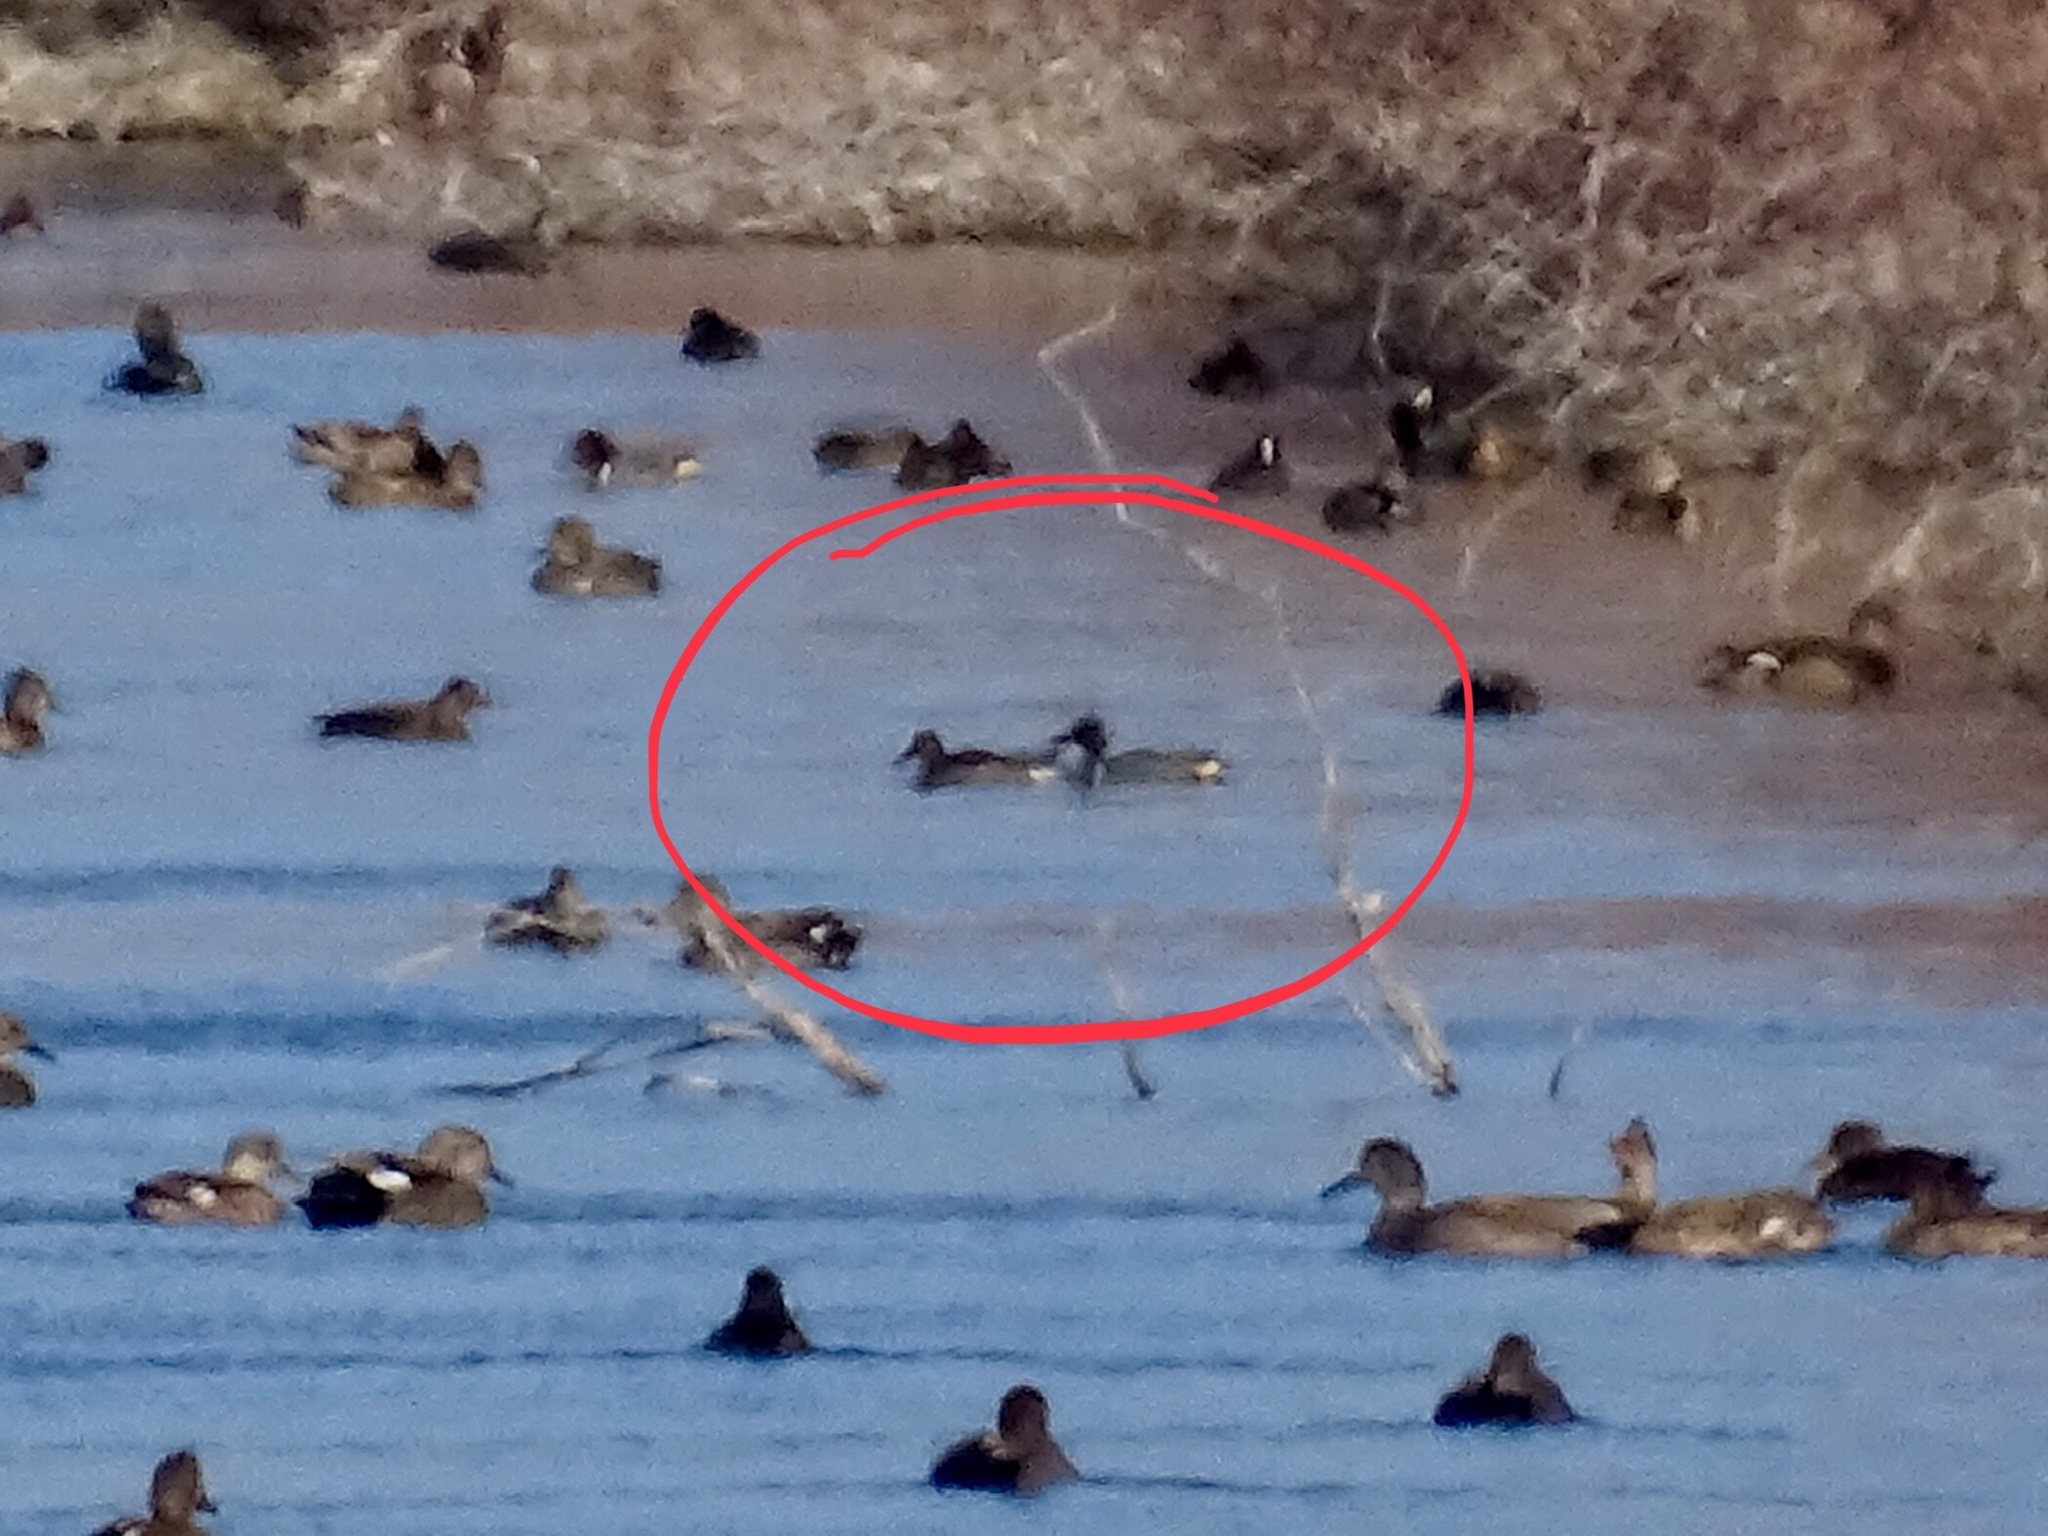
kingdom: Animalia
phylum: Chordata
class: Aves
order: Anseriformes
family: Anatidae
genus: Anas
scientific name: Anas crecca
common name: Eurasian teal
